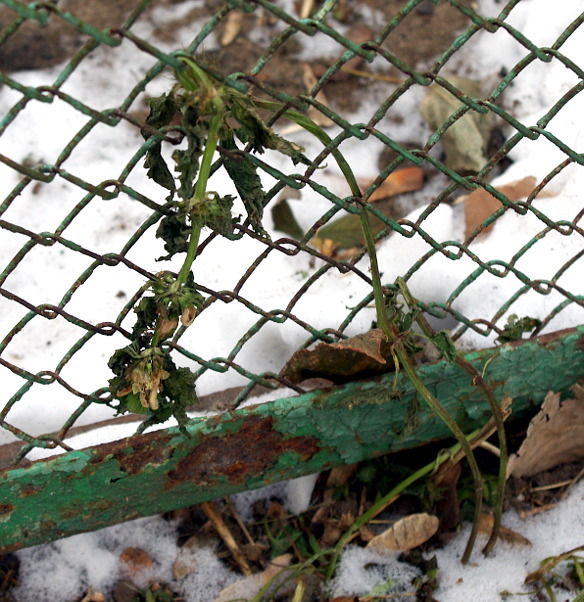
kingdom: Plantae
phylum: Tracheophyta
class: Magnoliopsida
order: Lamiales
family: Lamiaceae
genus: Lamium
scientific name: Lamium album
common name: White dead-nettle
